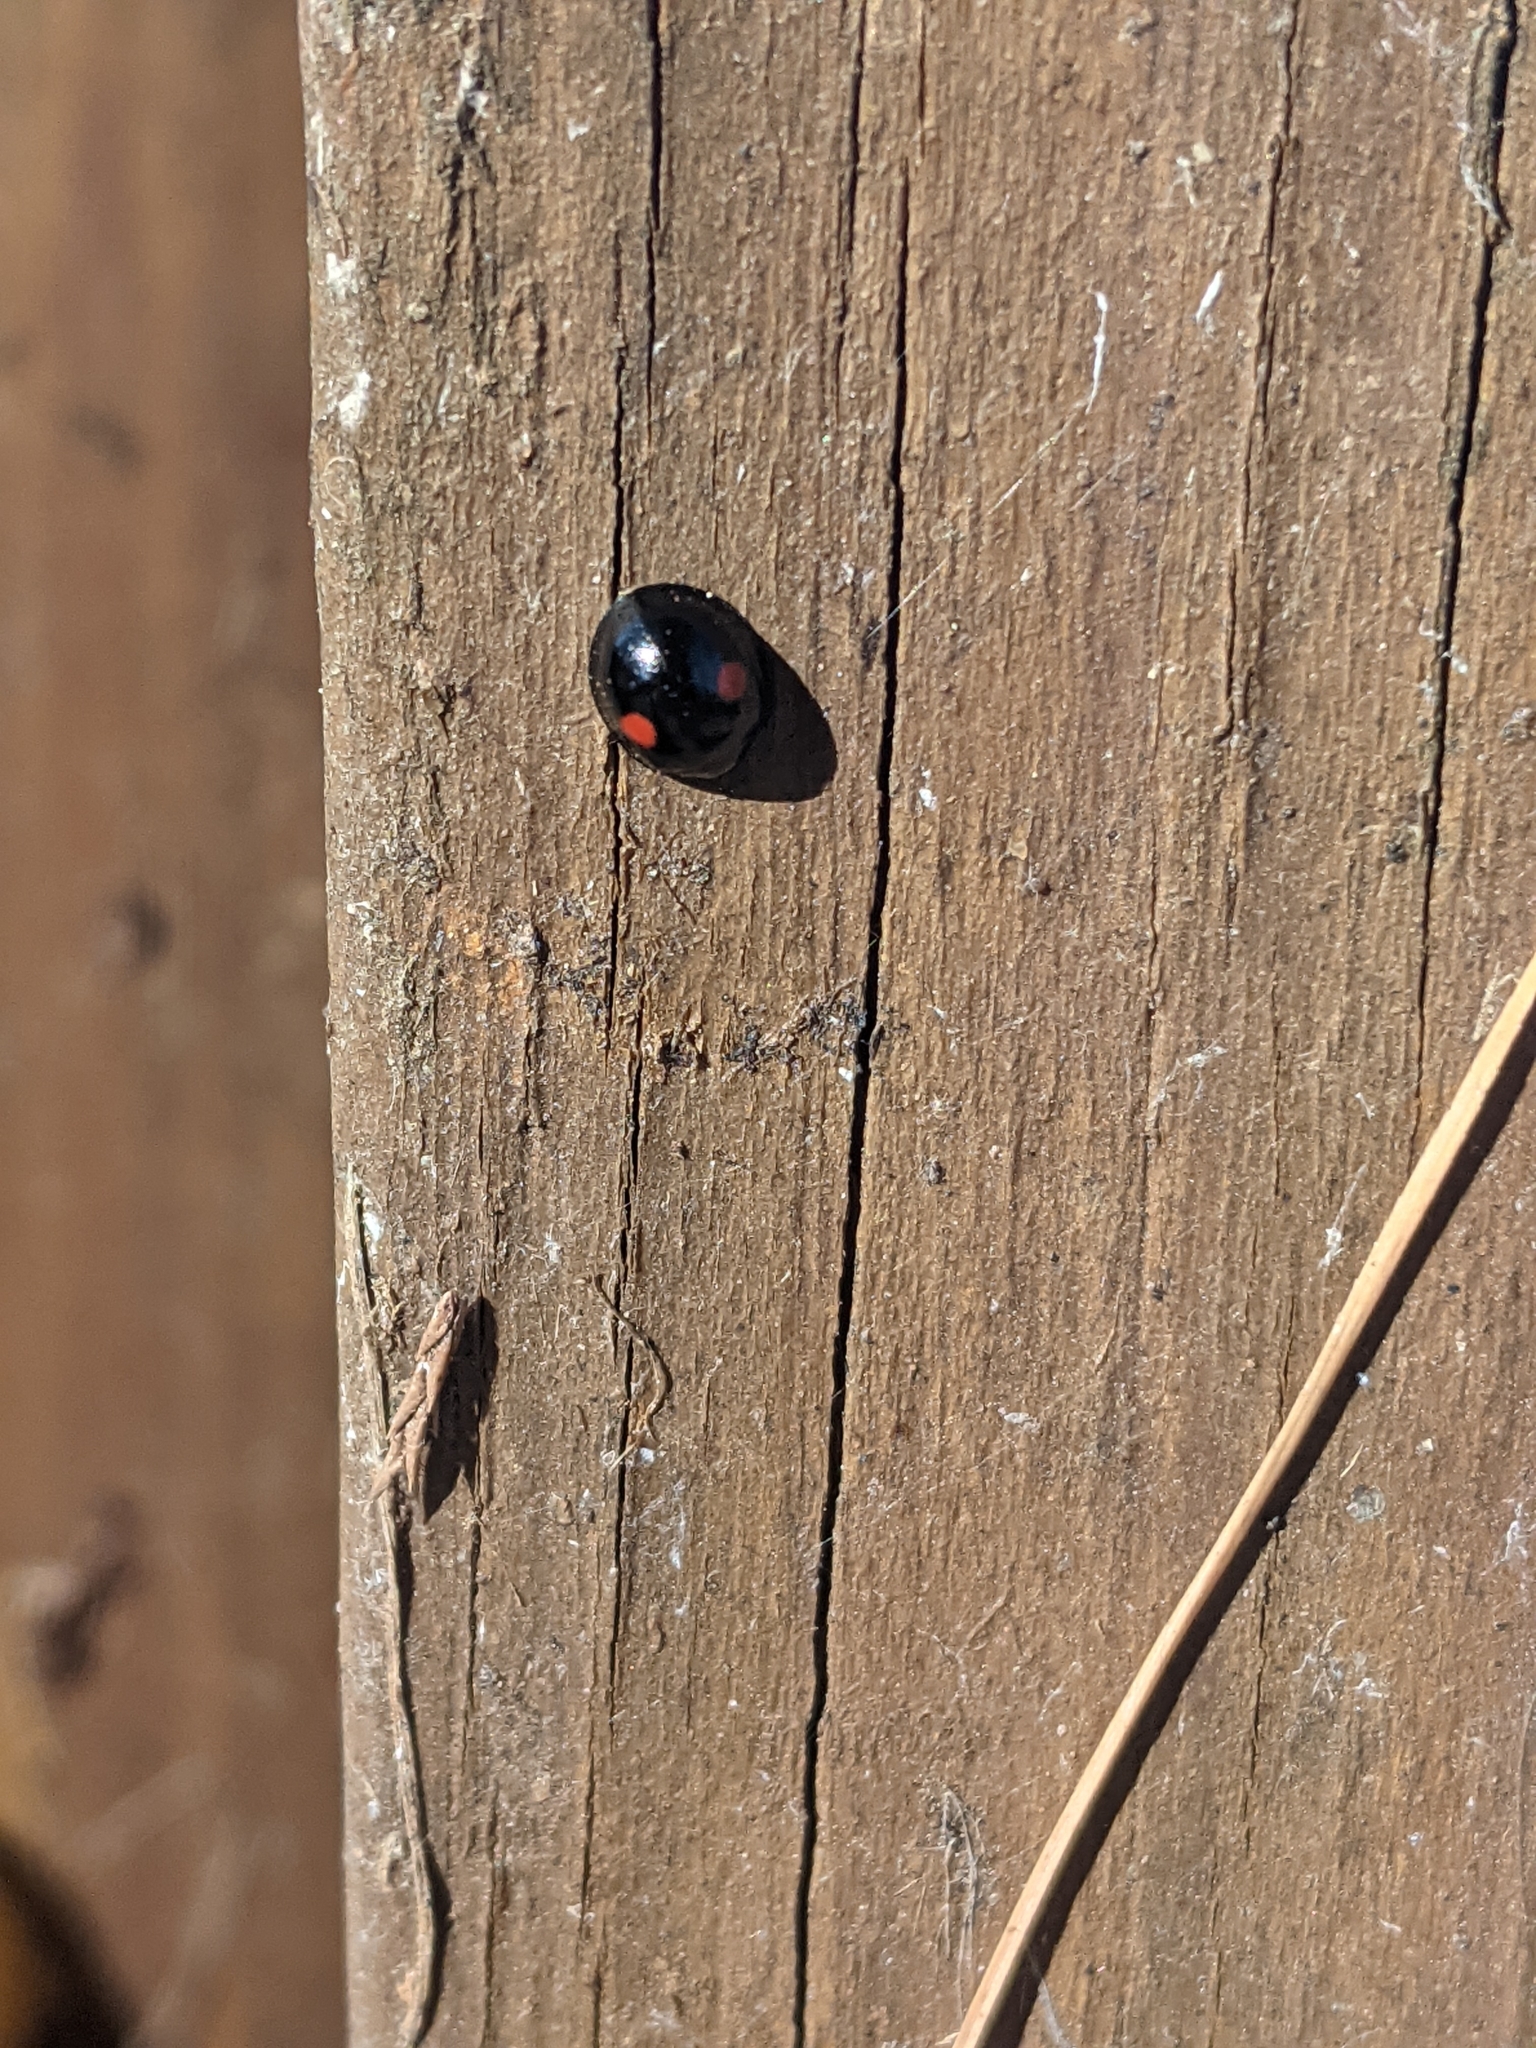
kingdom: Animalia
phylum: Arthropoda
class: Insecta
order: Coleoptera
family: Coccinellidae
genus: Chilocorus
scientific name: Chilocorus stigma
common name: Twicestabbed lady beetle
